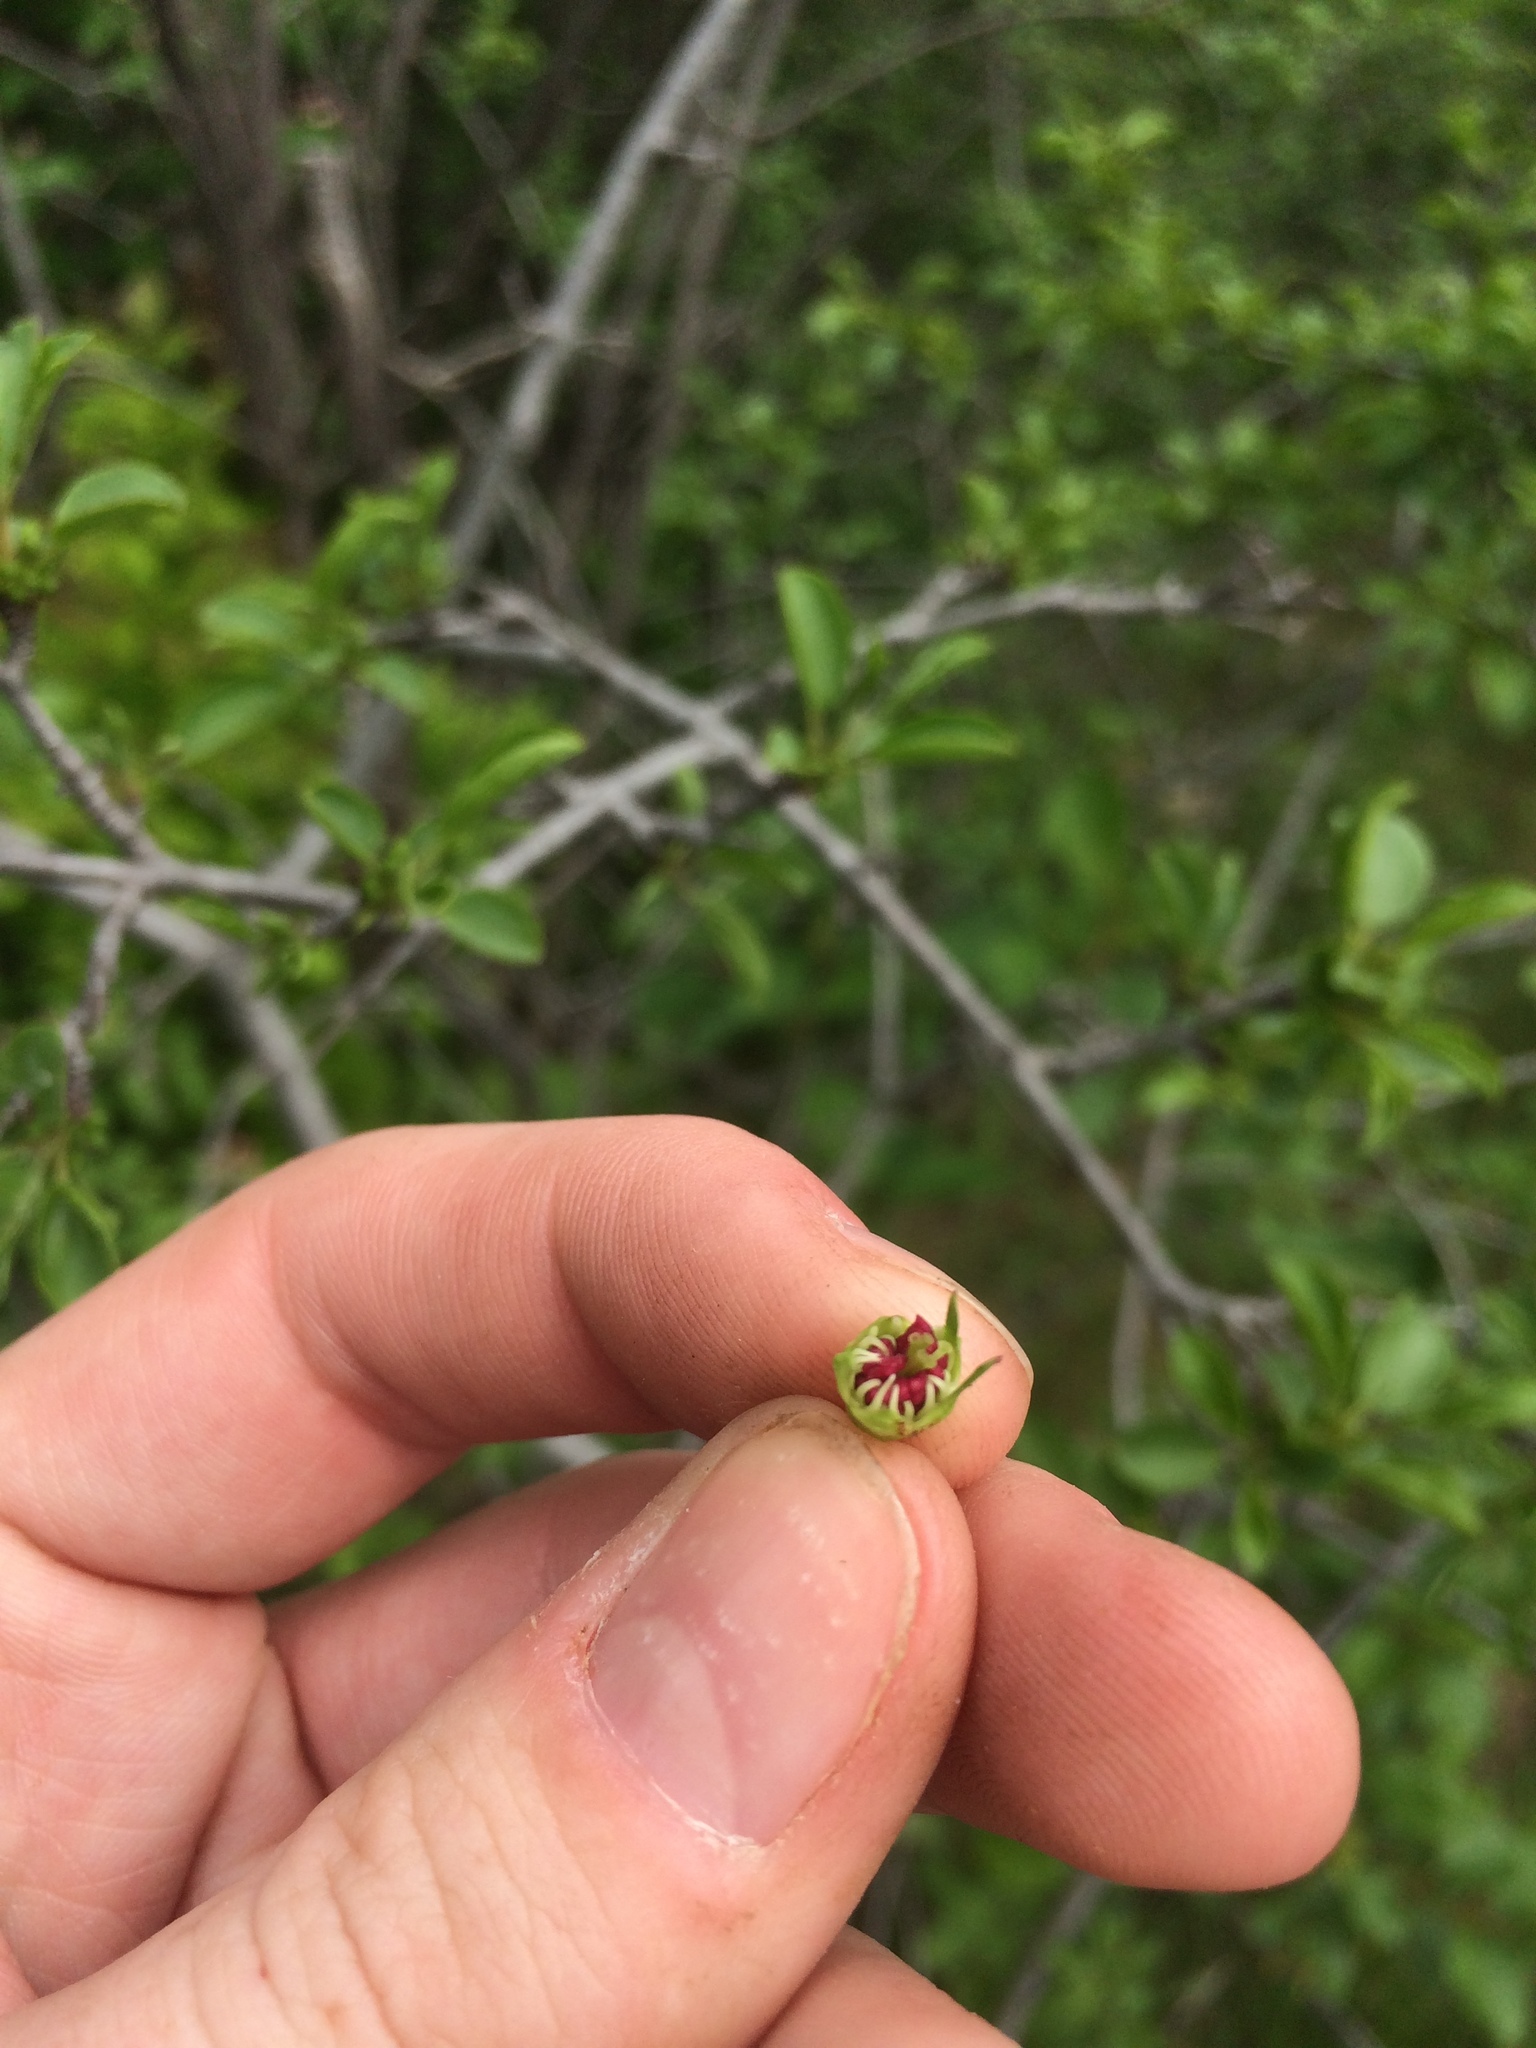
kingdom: Plantae
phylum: Tracheophyta
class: Magnoliopsida
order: Rosales
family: Rosaceae
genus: Crataegus
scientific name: Crataegus suborbiculata
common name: Caughnawaga hawthorn
